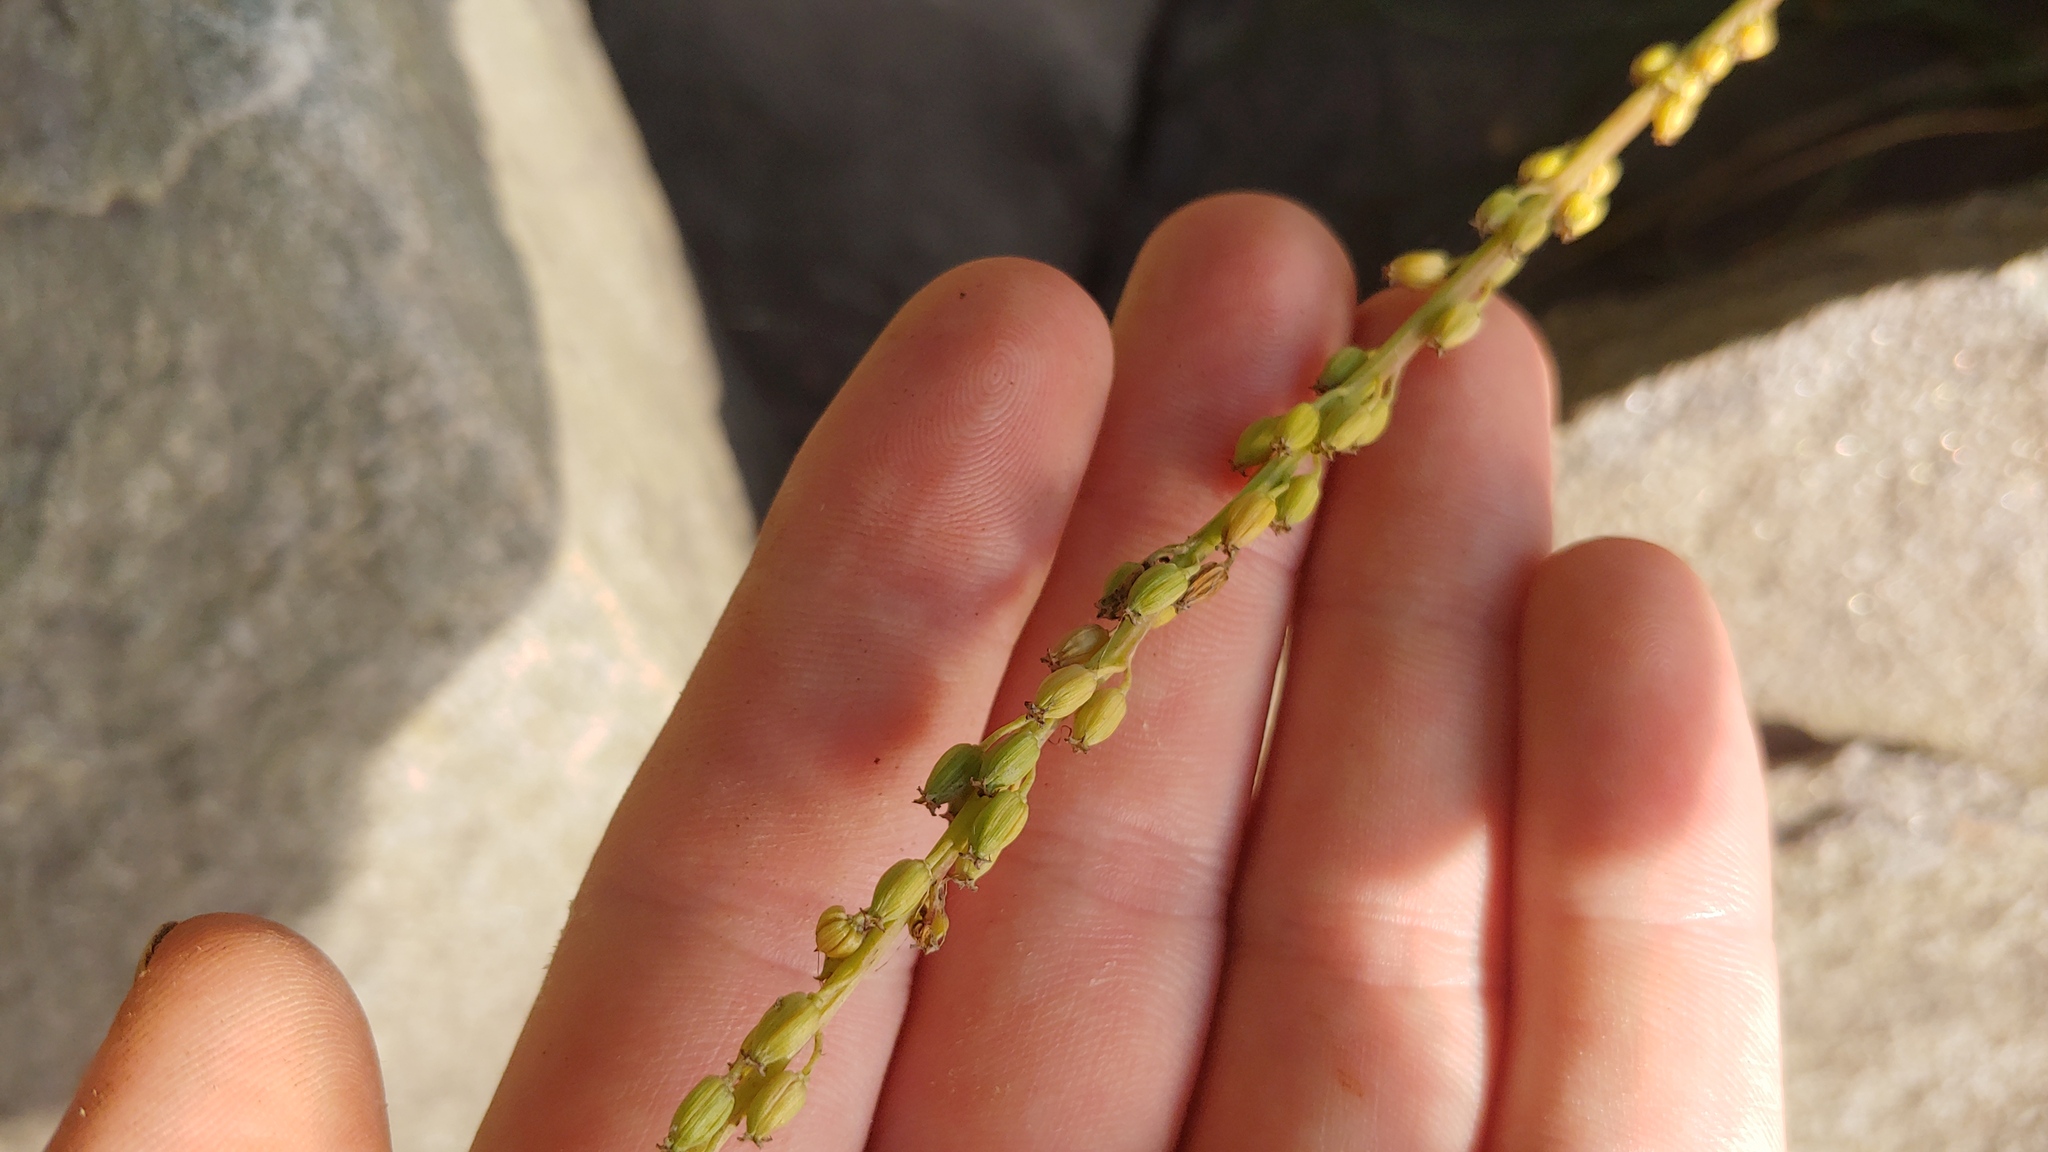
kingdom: Plantae
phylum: Tracheophyta
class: Liliopsida
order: Alismatales
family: Juncaginaceae
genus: Triglochin
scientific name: Triglochin maritima
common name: Sea arrowgrass
